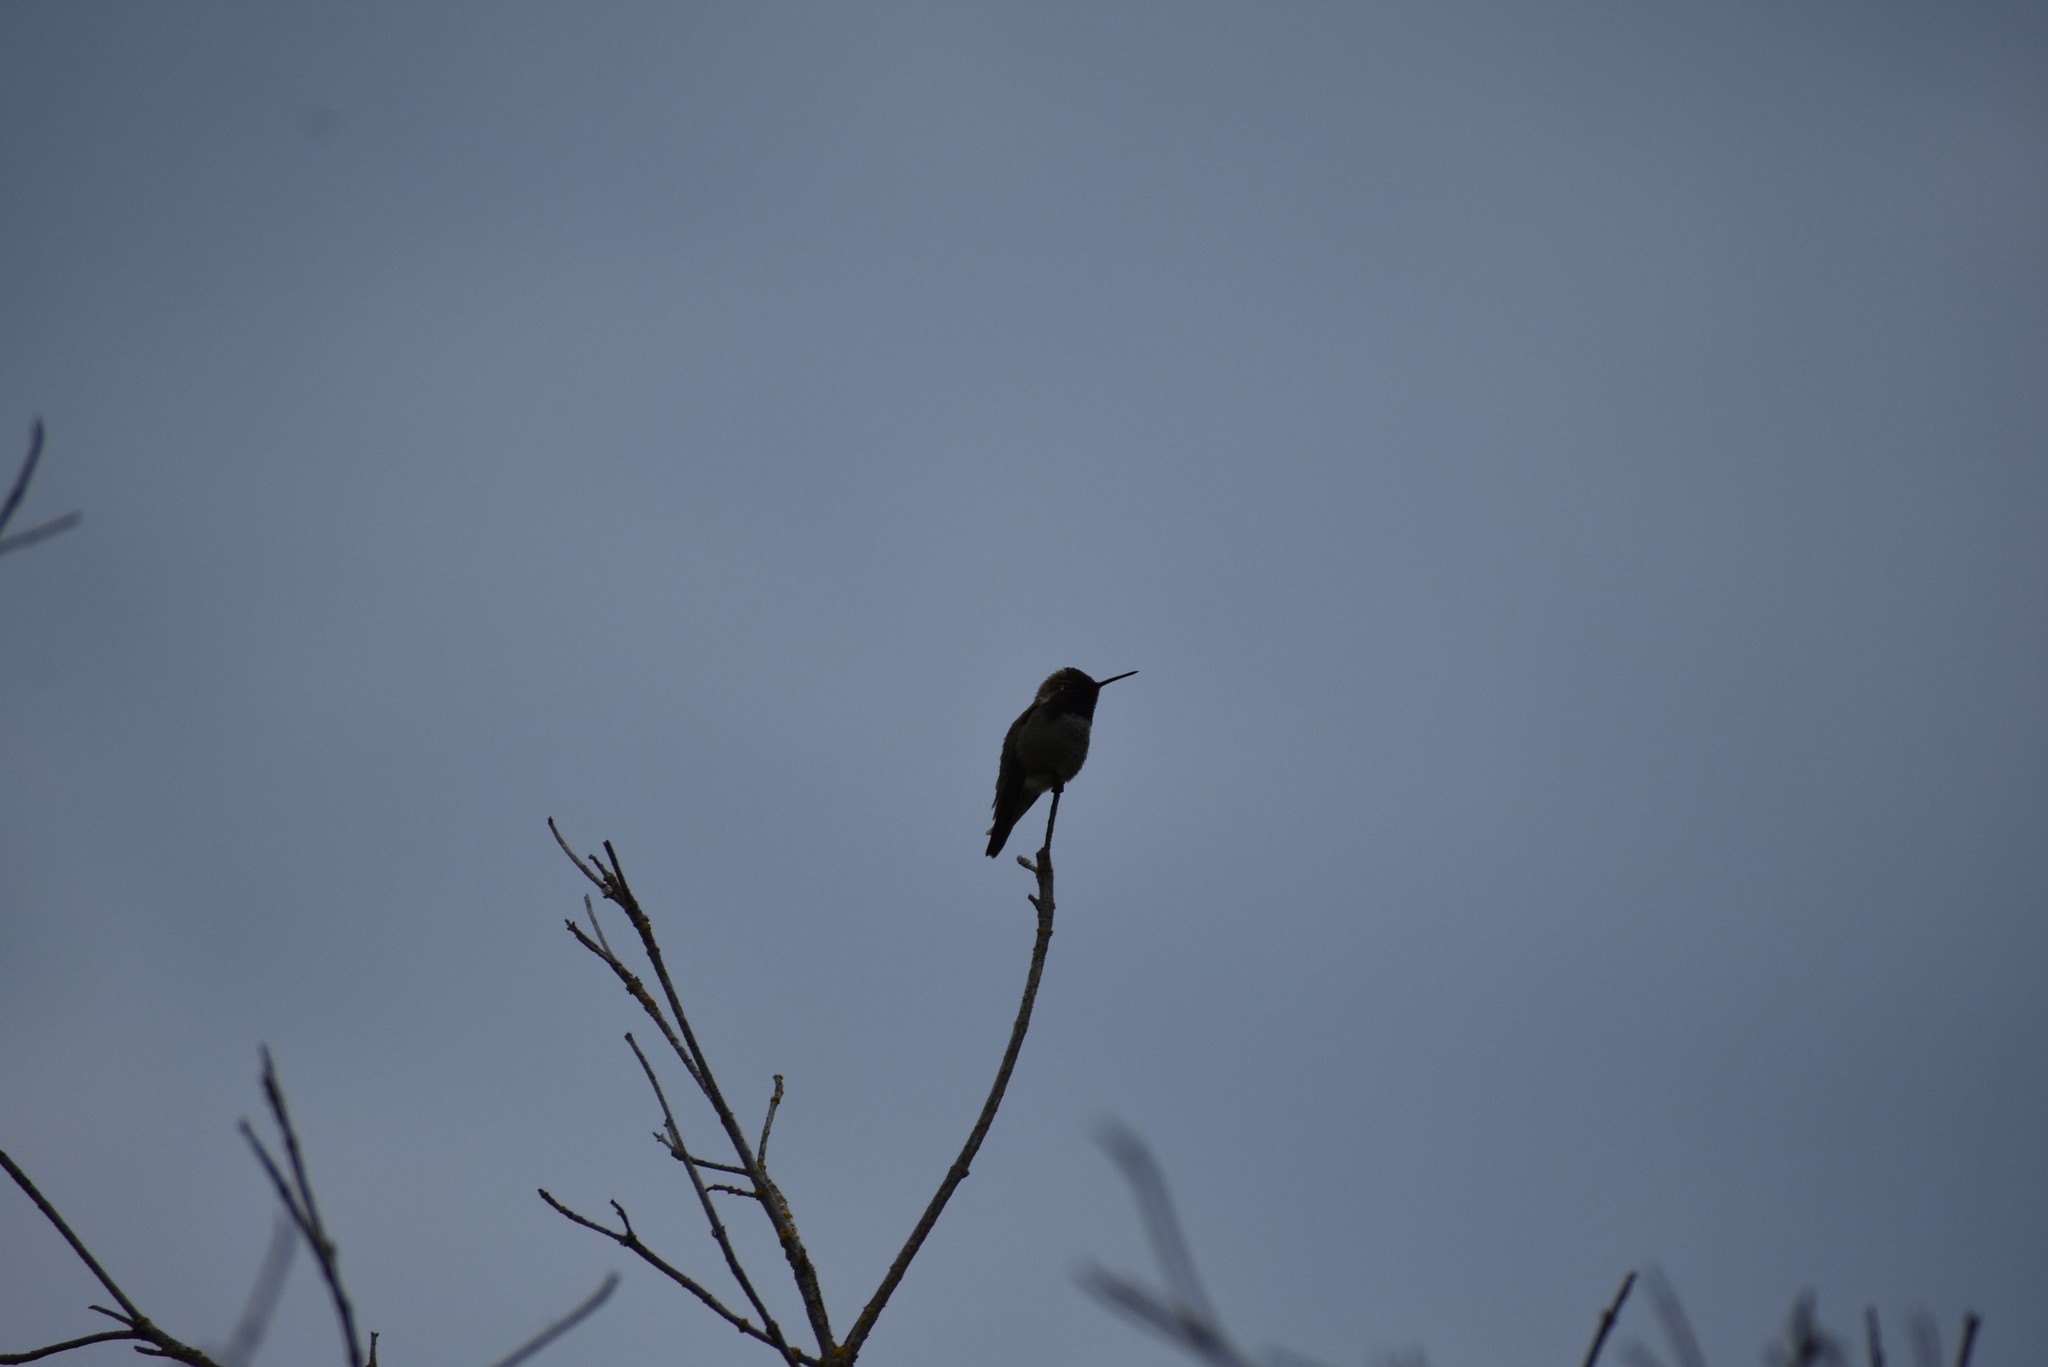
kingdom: Animalia
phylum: Chordata
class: Aves
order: Apodiformes
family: Trochilidae
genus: Calypte
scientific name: Calypte anna
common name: Anna's hummingbird
